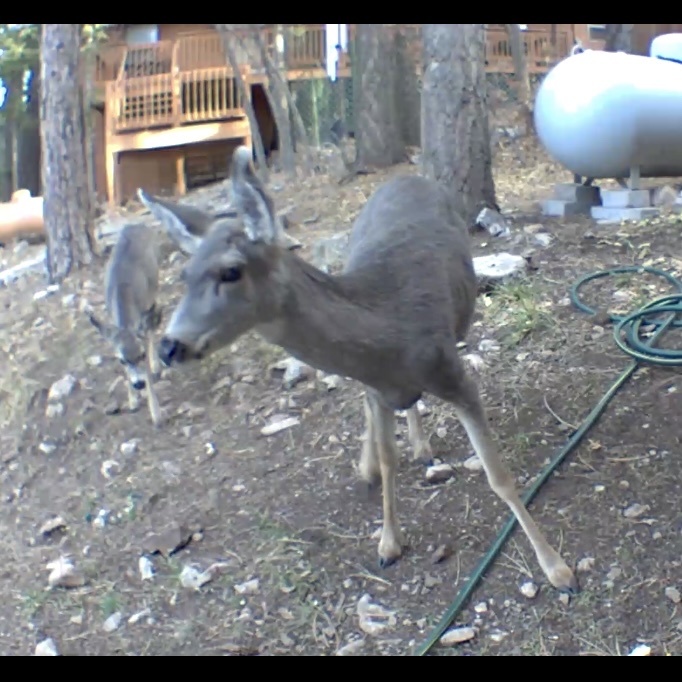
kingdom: Animalia
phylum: Chordata
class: Mammalia
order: Artiodactyla
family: Cervidae
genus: Odocoileus
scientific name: Odocoileus hemionus
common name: Mule deer
